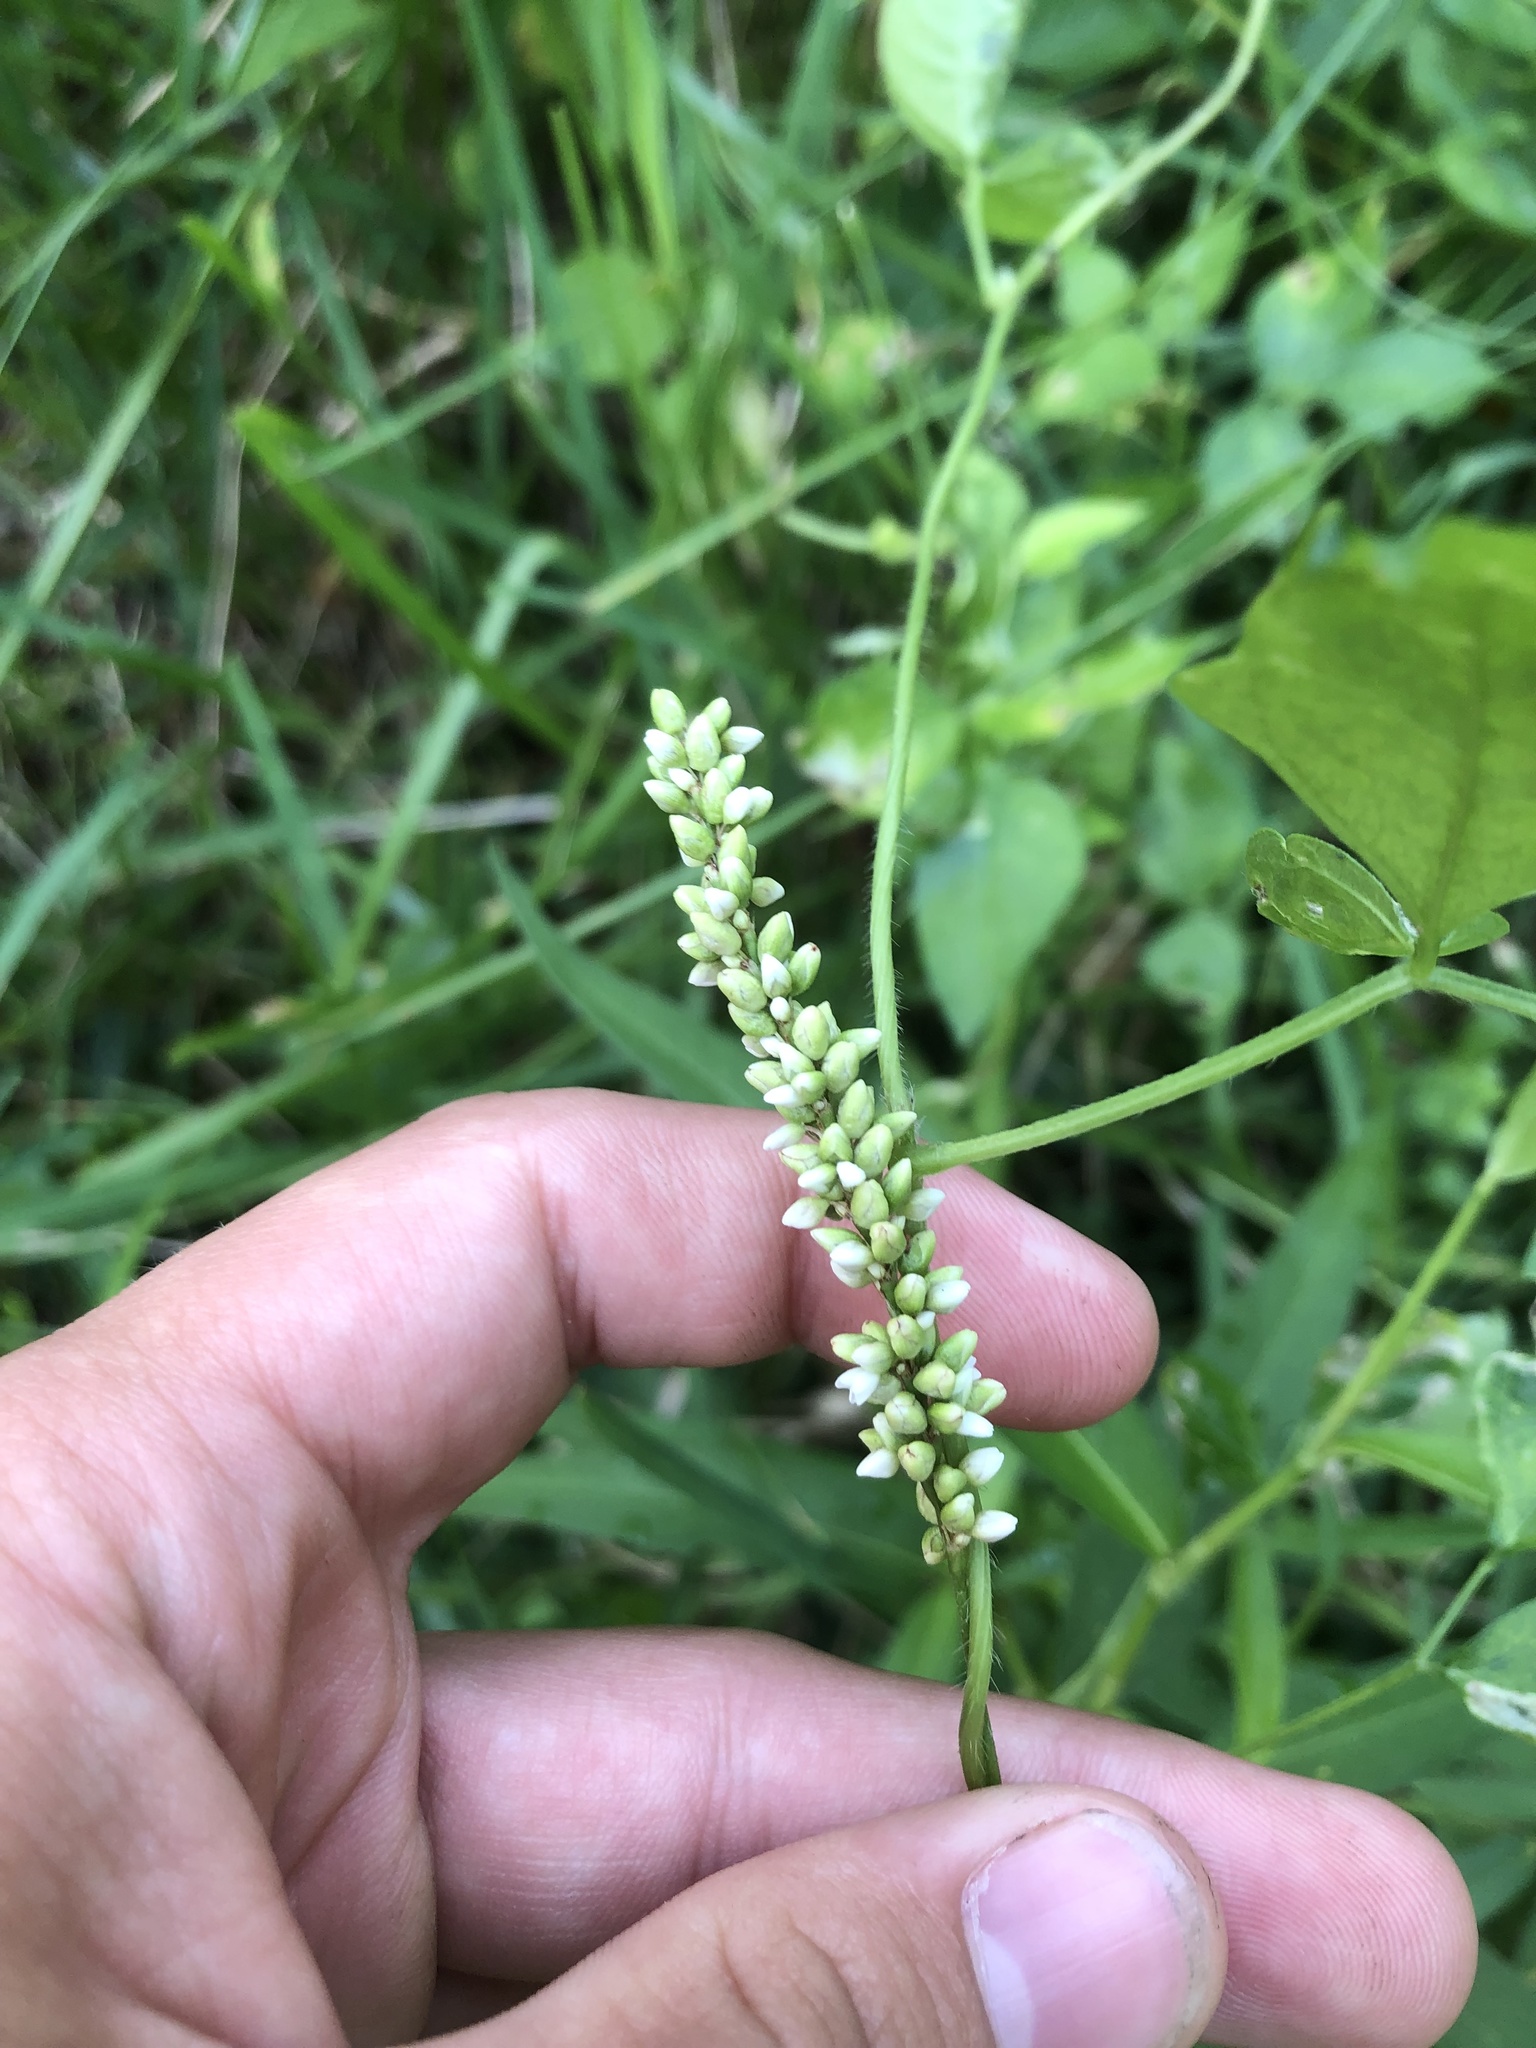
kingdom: Plantae
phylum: Tracheophyta
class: Magnoliopsida
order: Caryophyllales
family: Polygonaceae
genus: Persicaria
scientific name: Persicaria hydropiperoides
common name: Swamp smartweed
